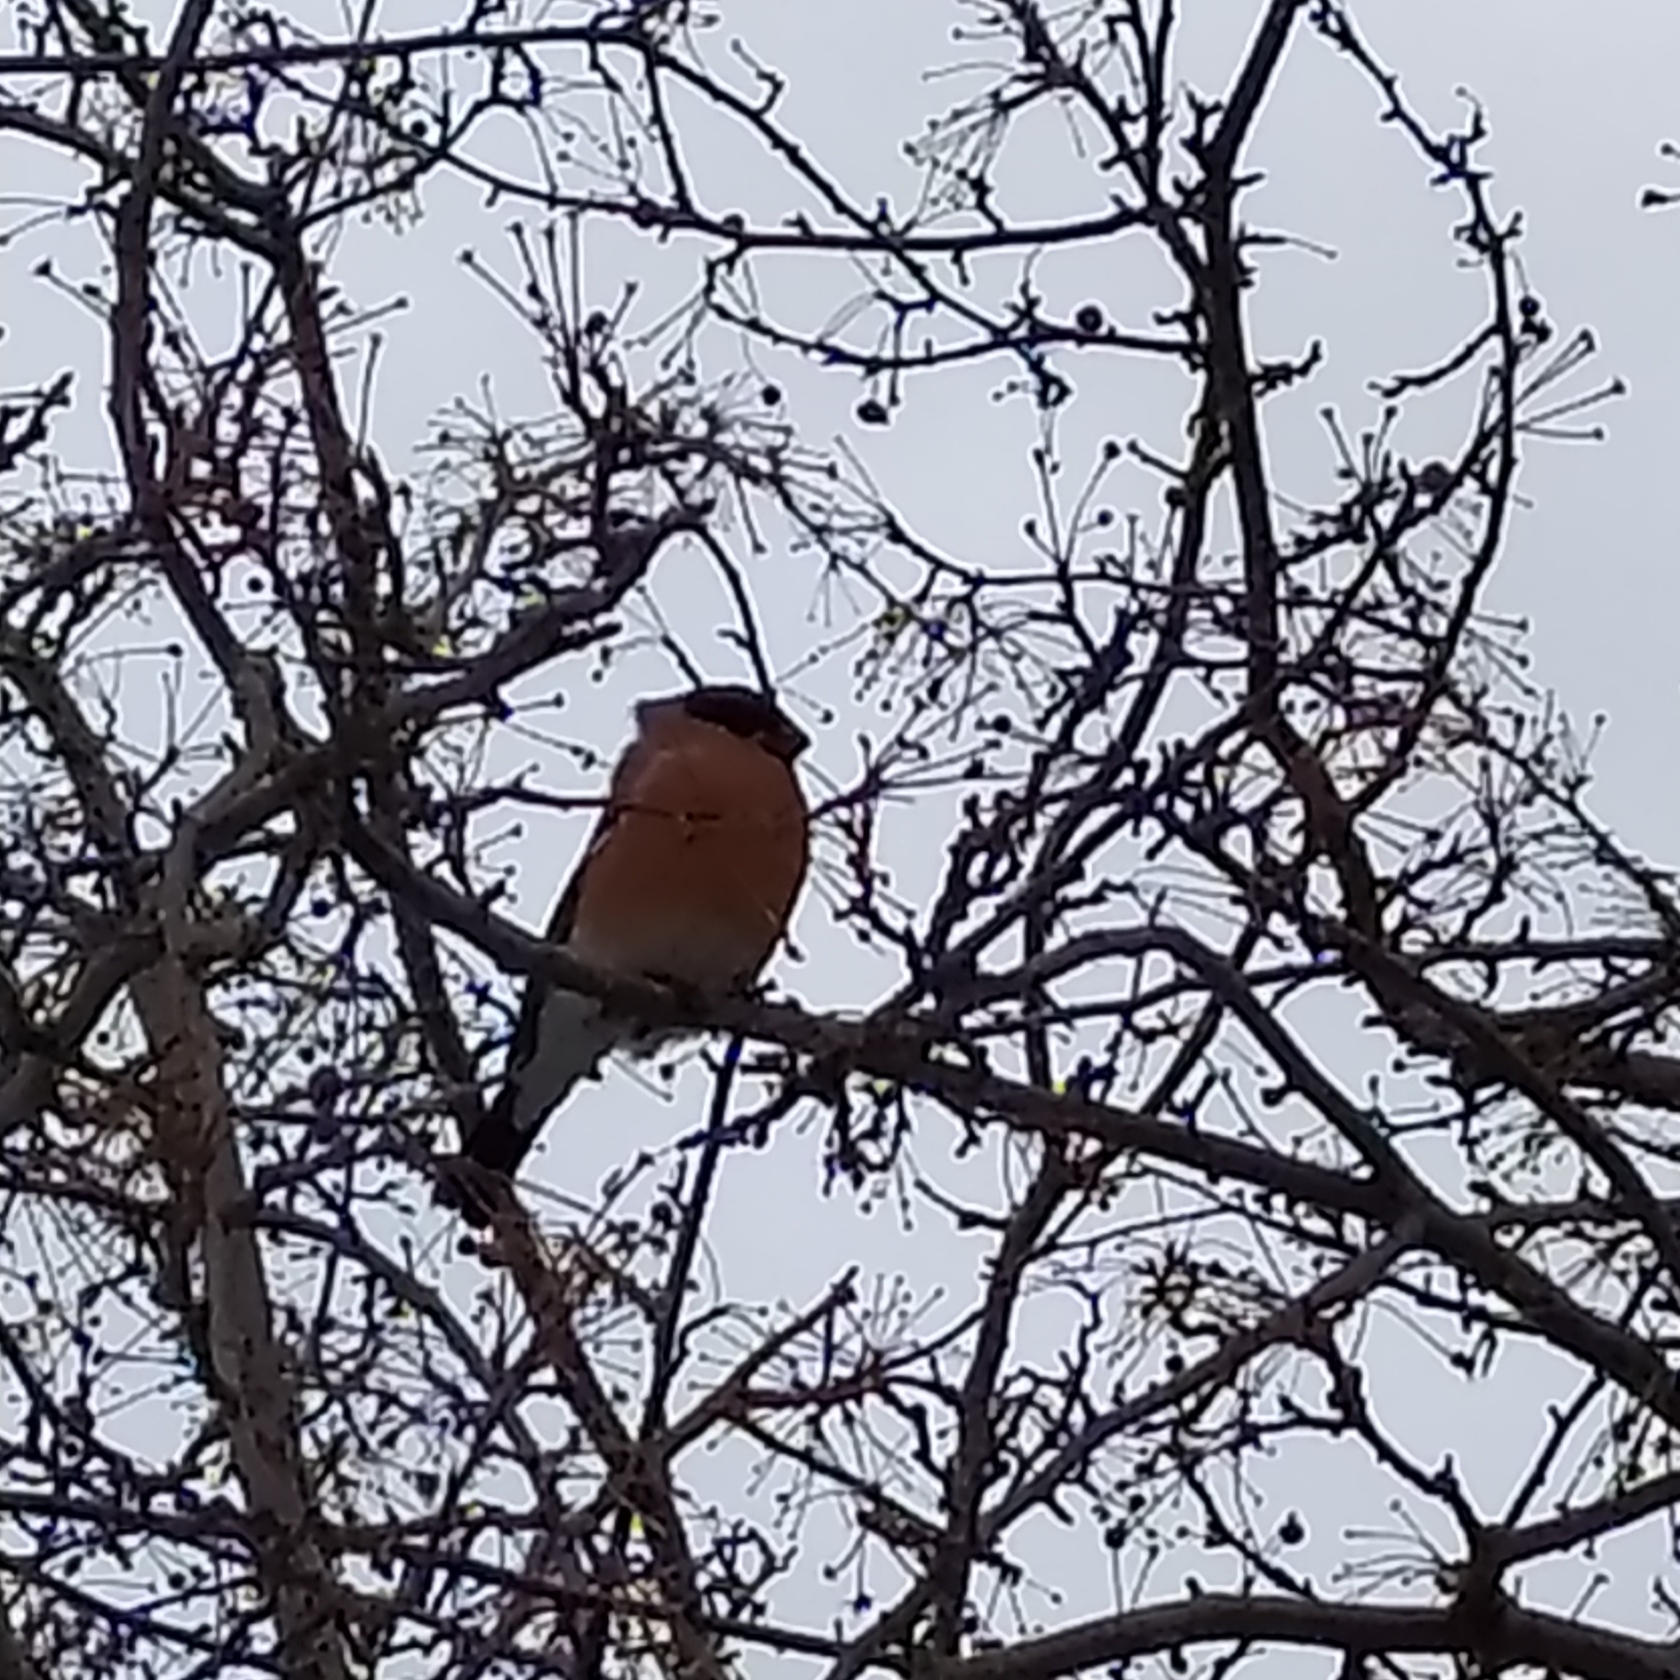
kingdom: Animalia
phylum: Chordata
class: Aves
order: Passeriformes
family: Fringillidae
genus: Pyrrhula
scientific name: Pyrrhula pyrrhula
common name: Eurasian bullfinch
